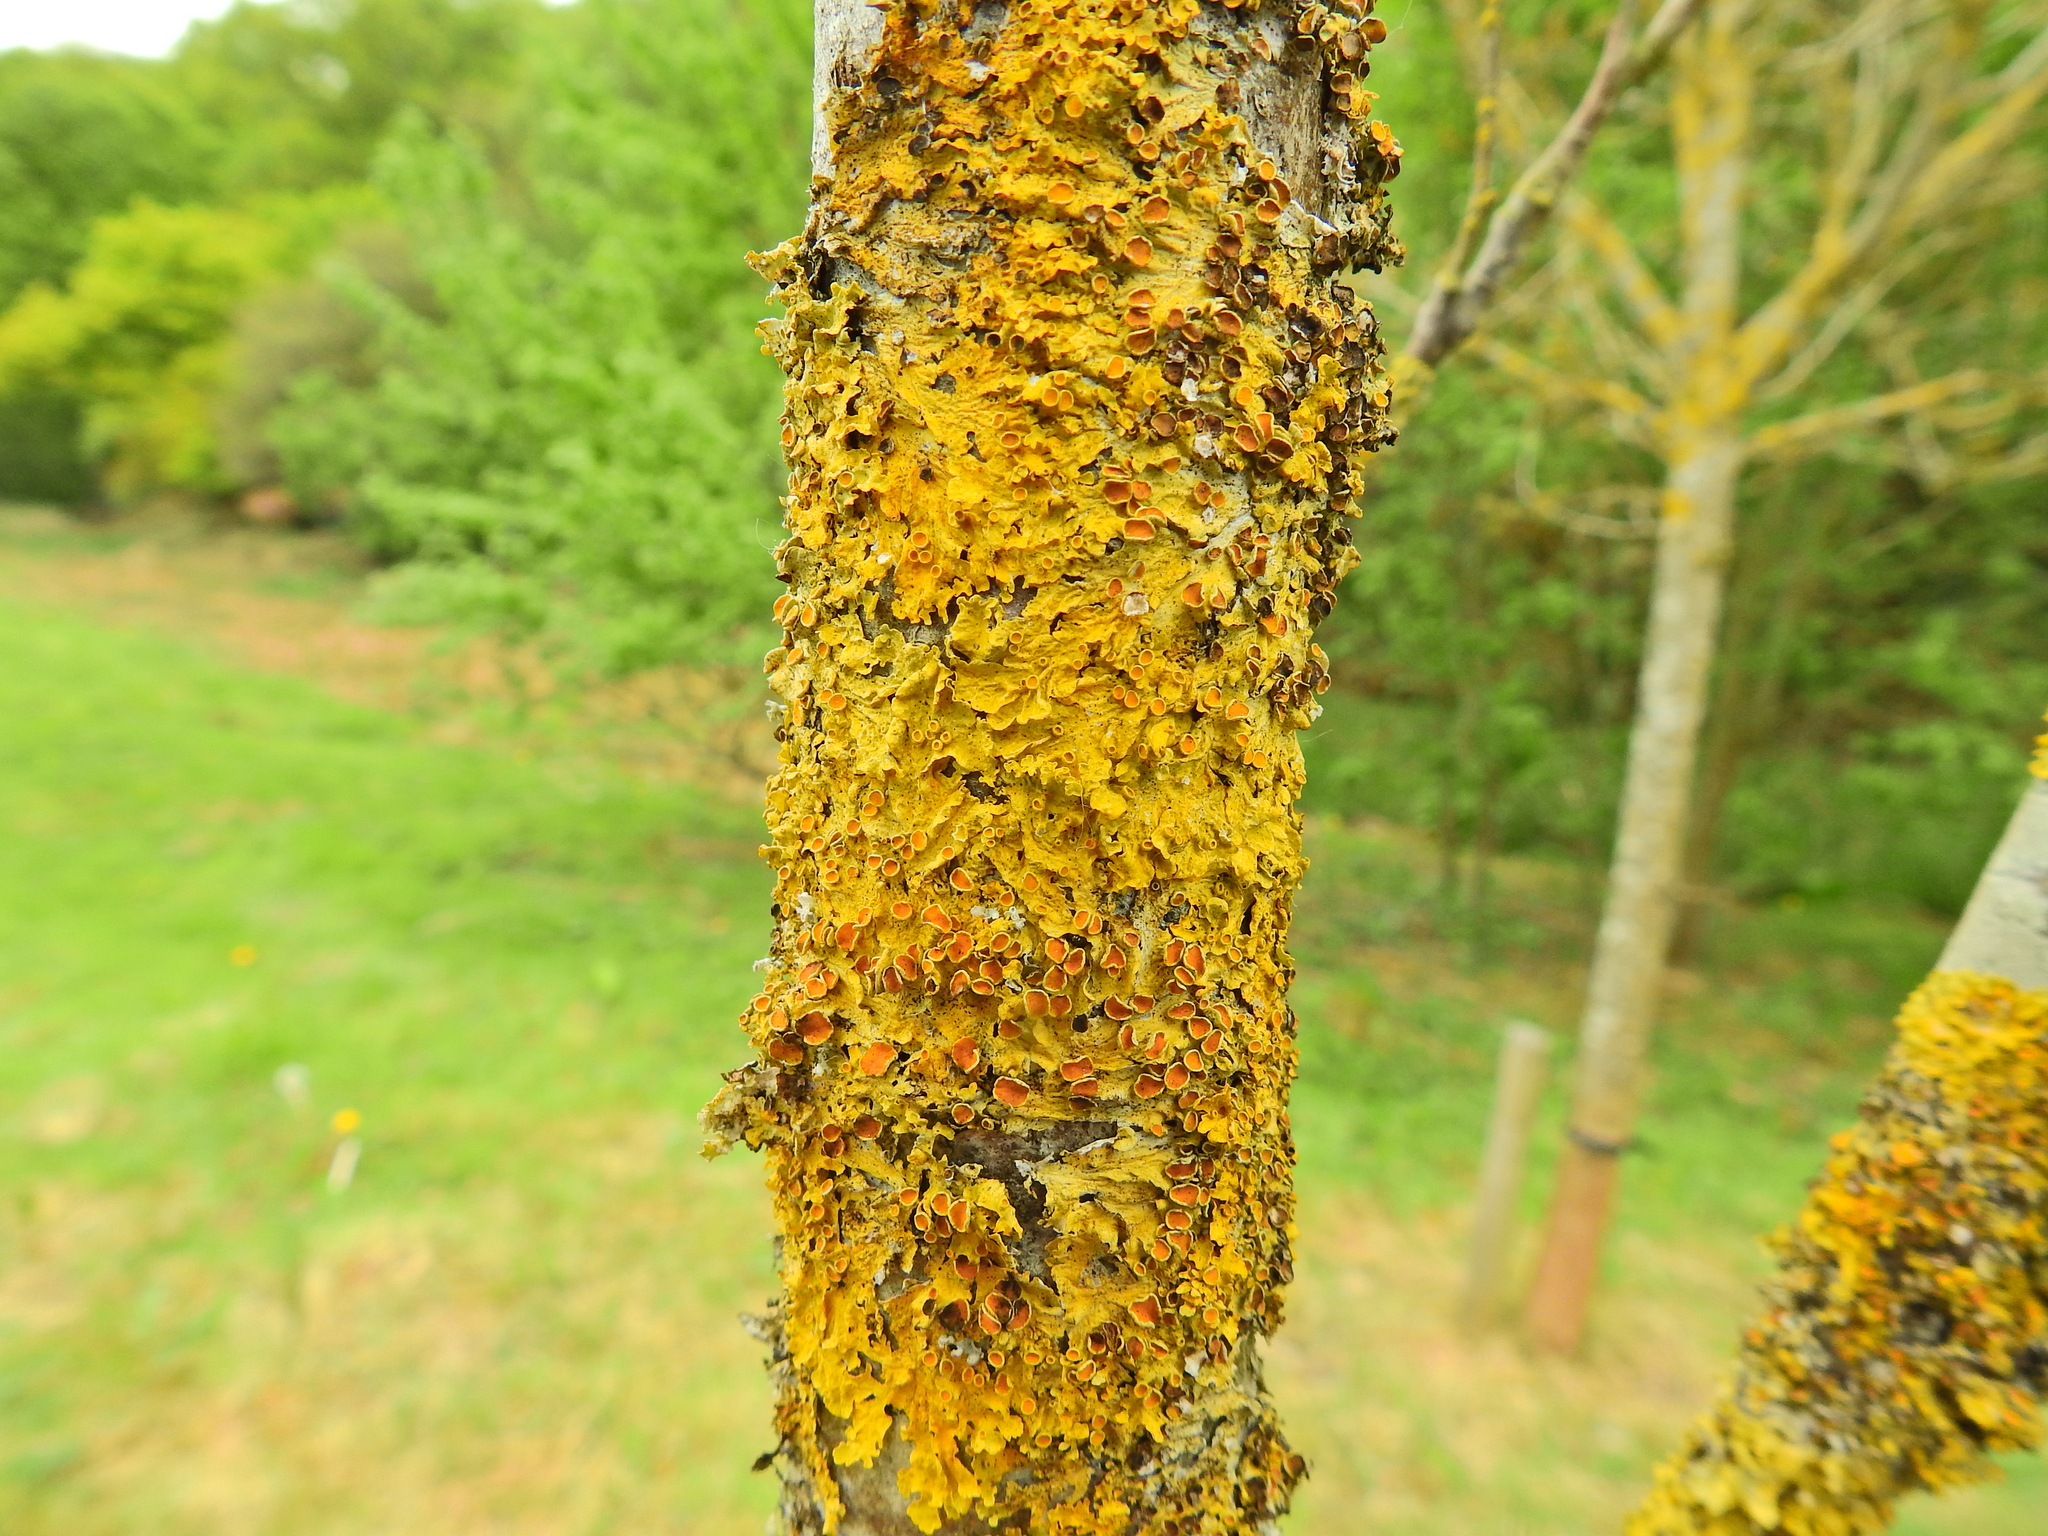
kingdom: Fungi
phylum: Ascomycota
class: Lecanoromycetes
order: Teloschistales
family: Teloschistaceae
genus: Xanthoria
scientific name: Xanthoria parietina
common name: Common orange lichen
